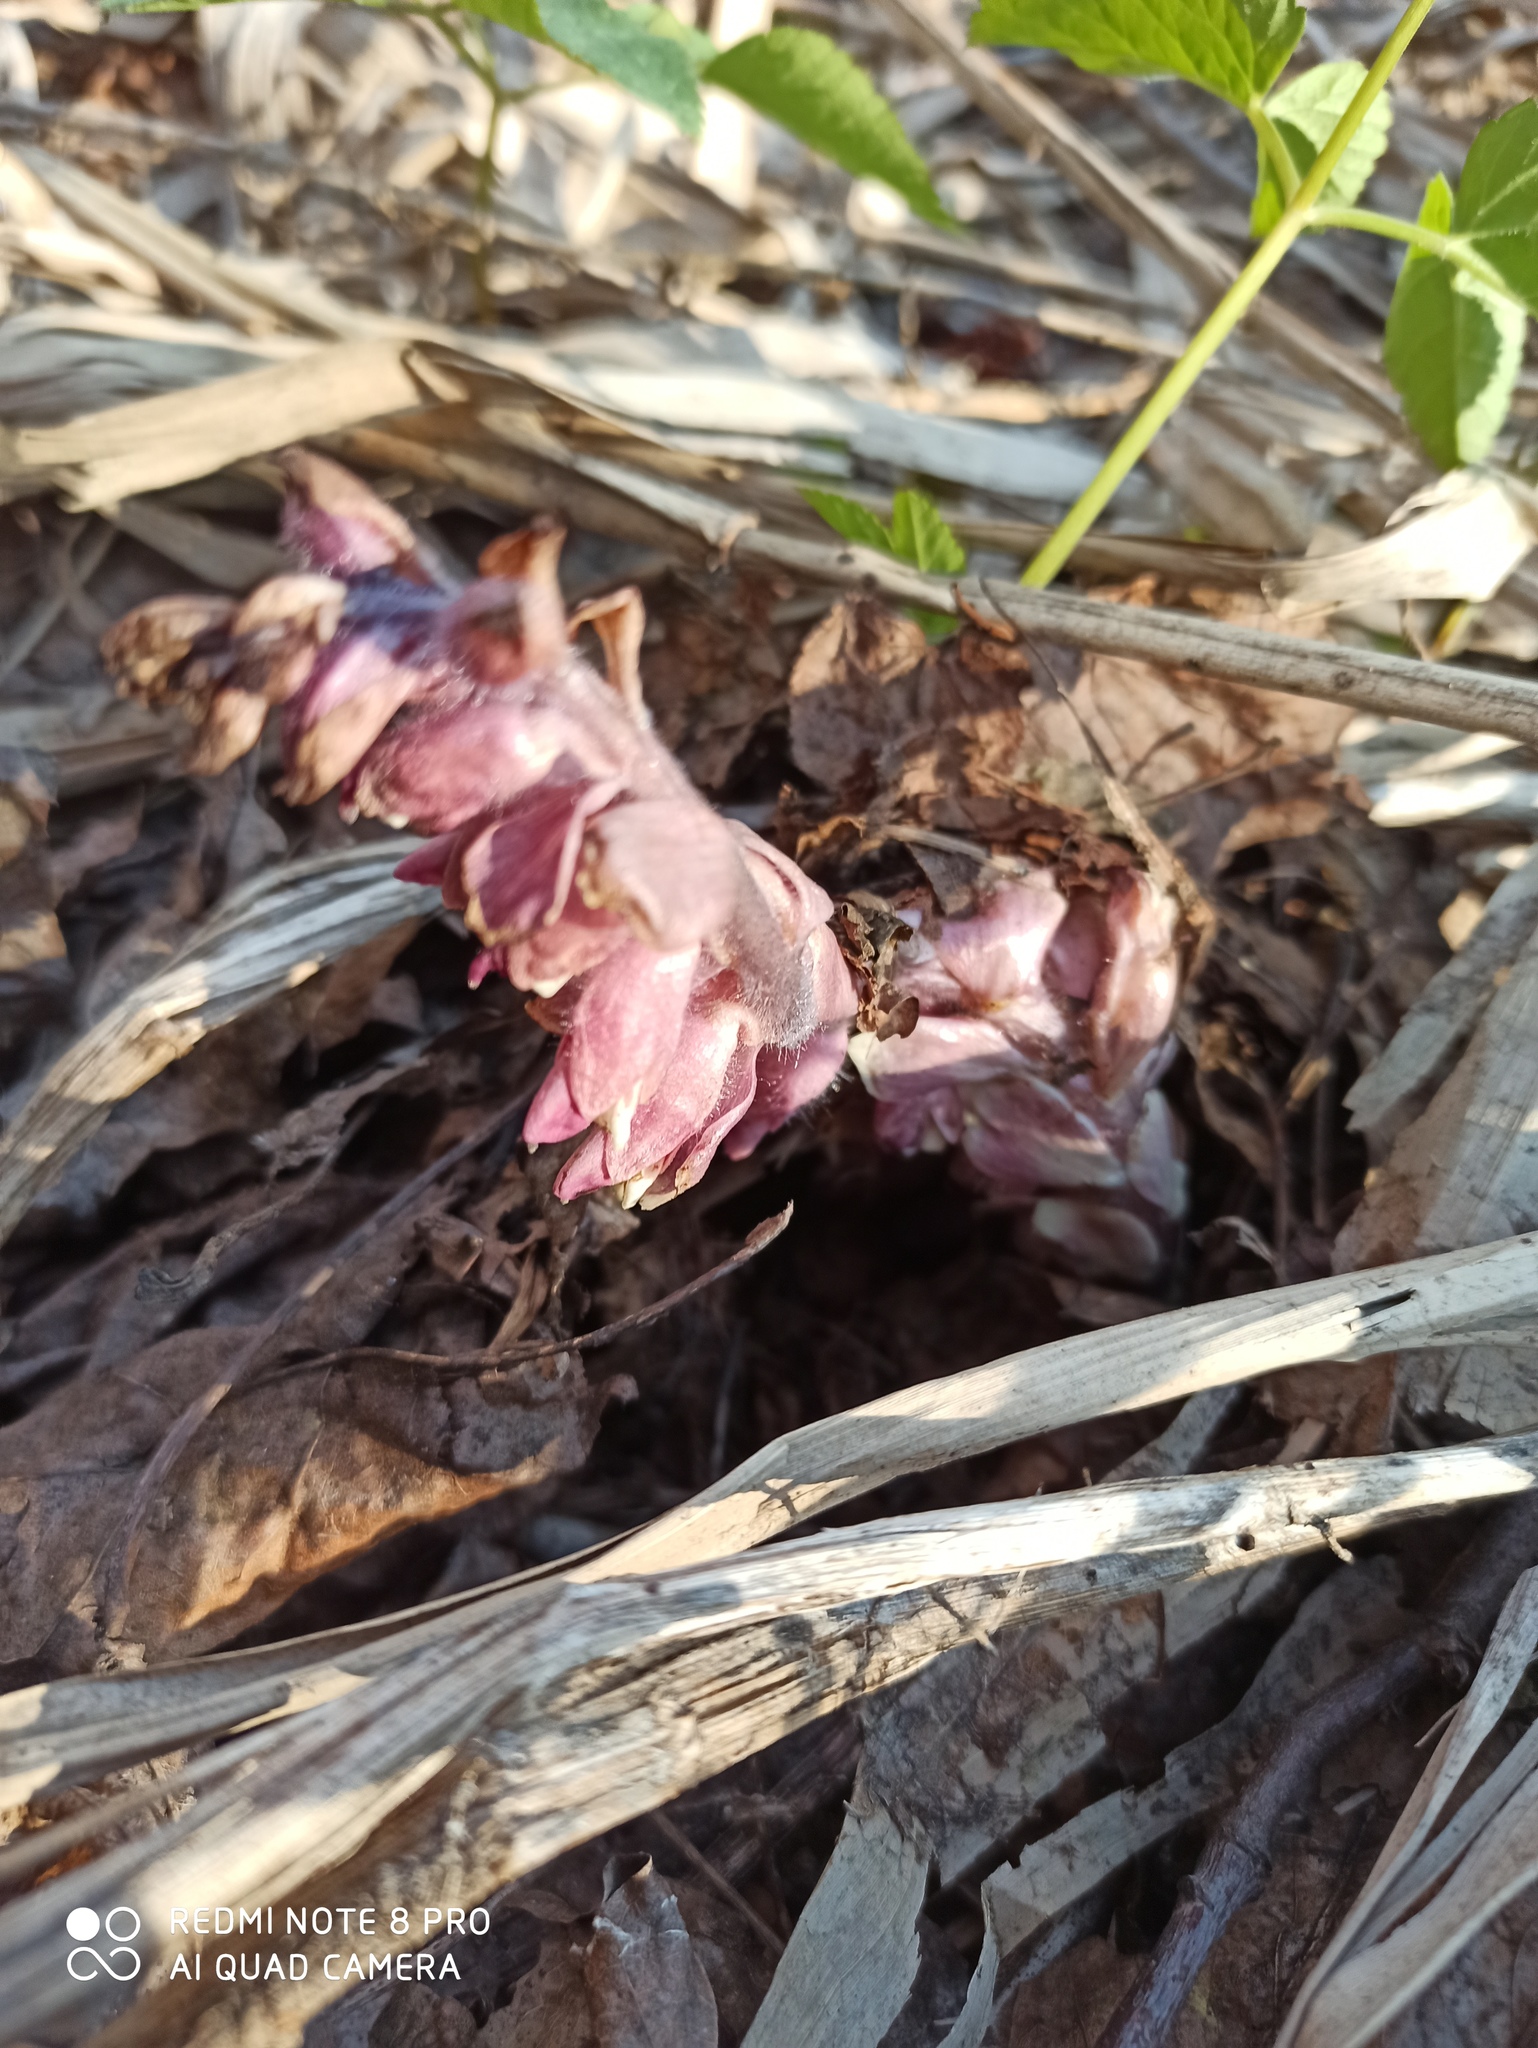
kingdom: Plantae
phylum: Tracheophyta
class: Magnoliopsida
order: Lamiales
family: Orobanchaceae
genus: Lathraea
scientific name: Lathraea squamaria
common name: Toothwort
